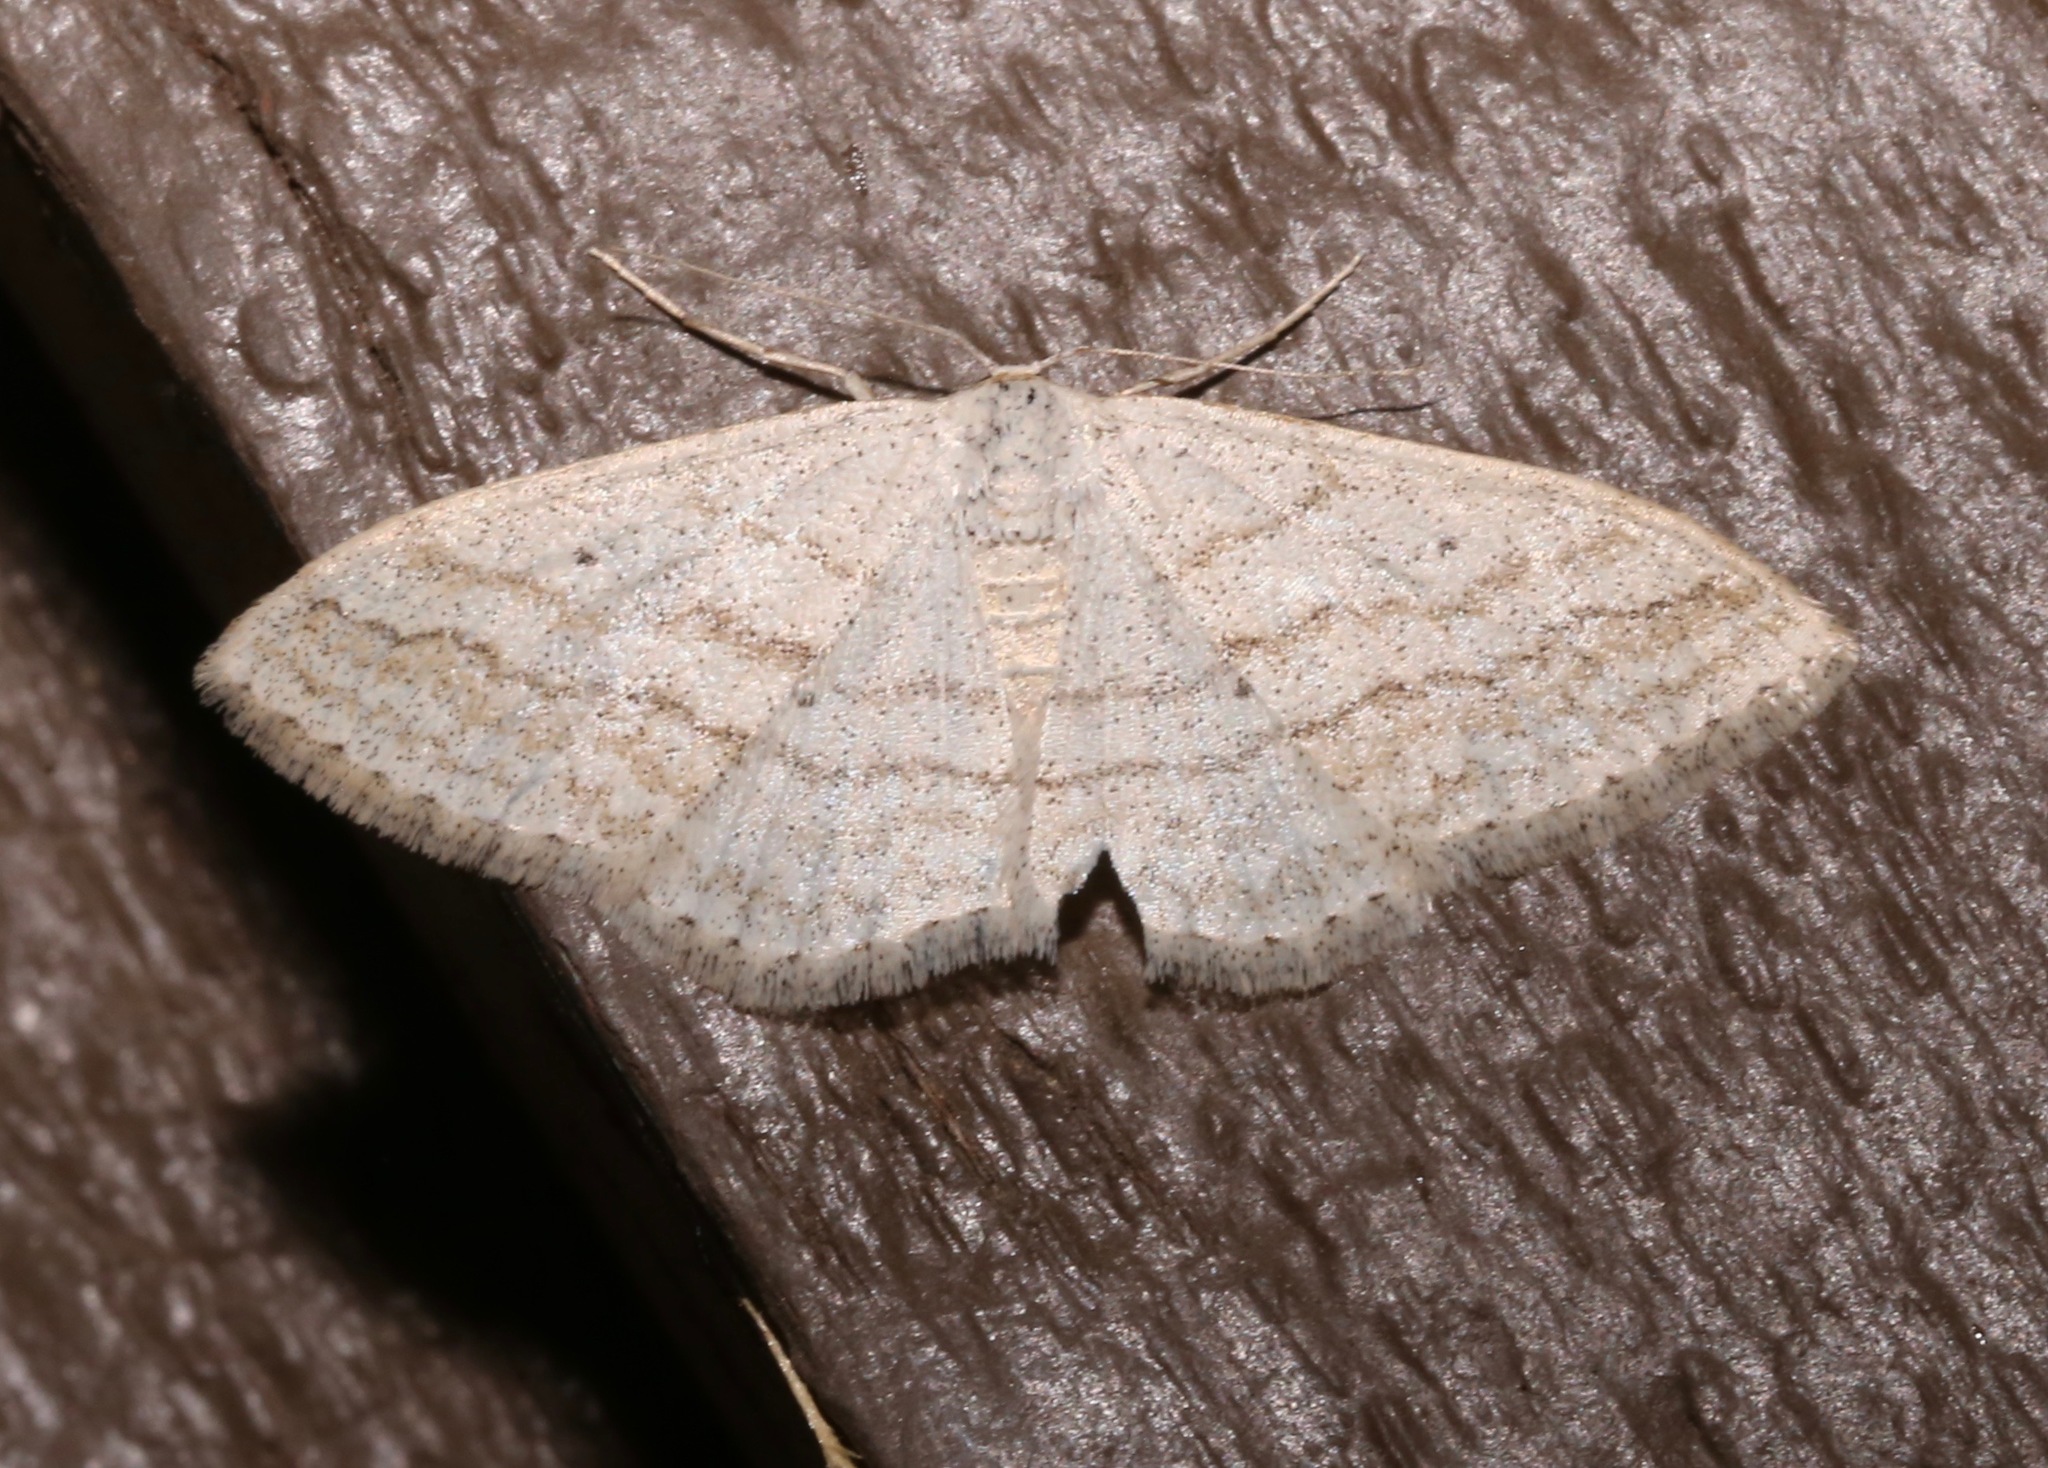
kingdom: Animalia
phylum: Arthropoda
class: Insecta
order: Lepidoptera
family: Geometridae
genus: Scopula
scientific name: Scopula ancellata
